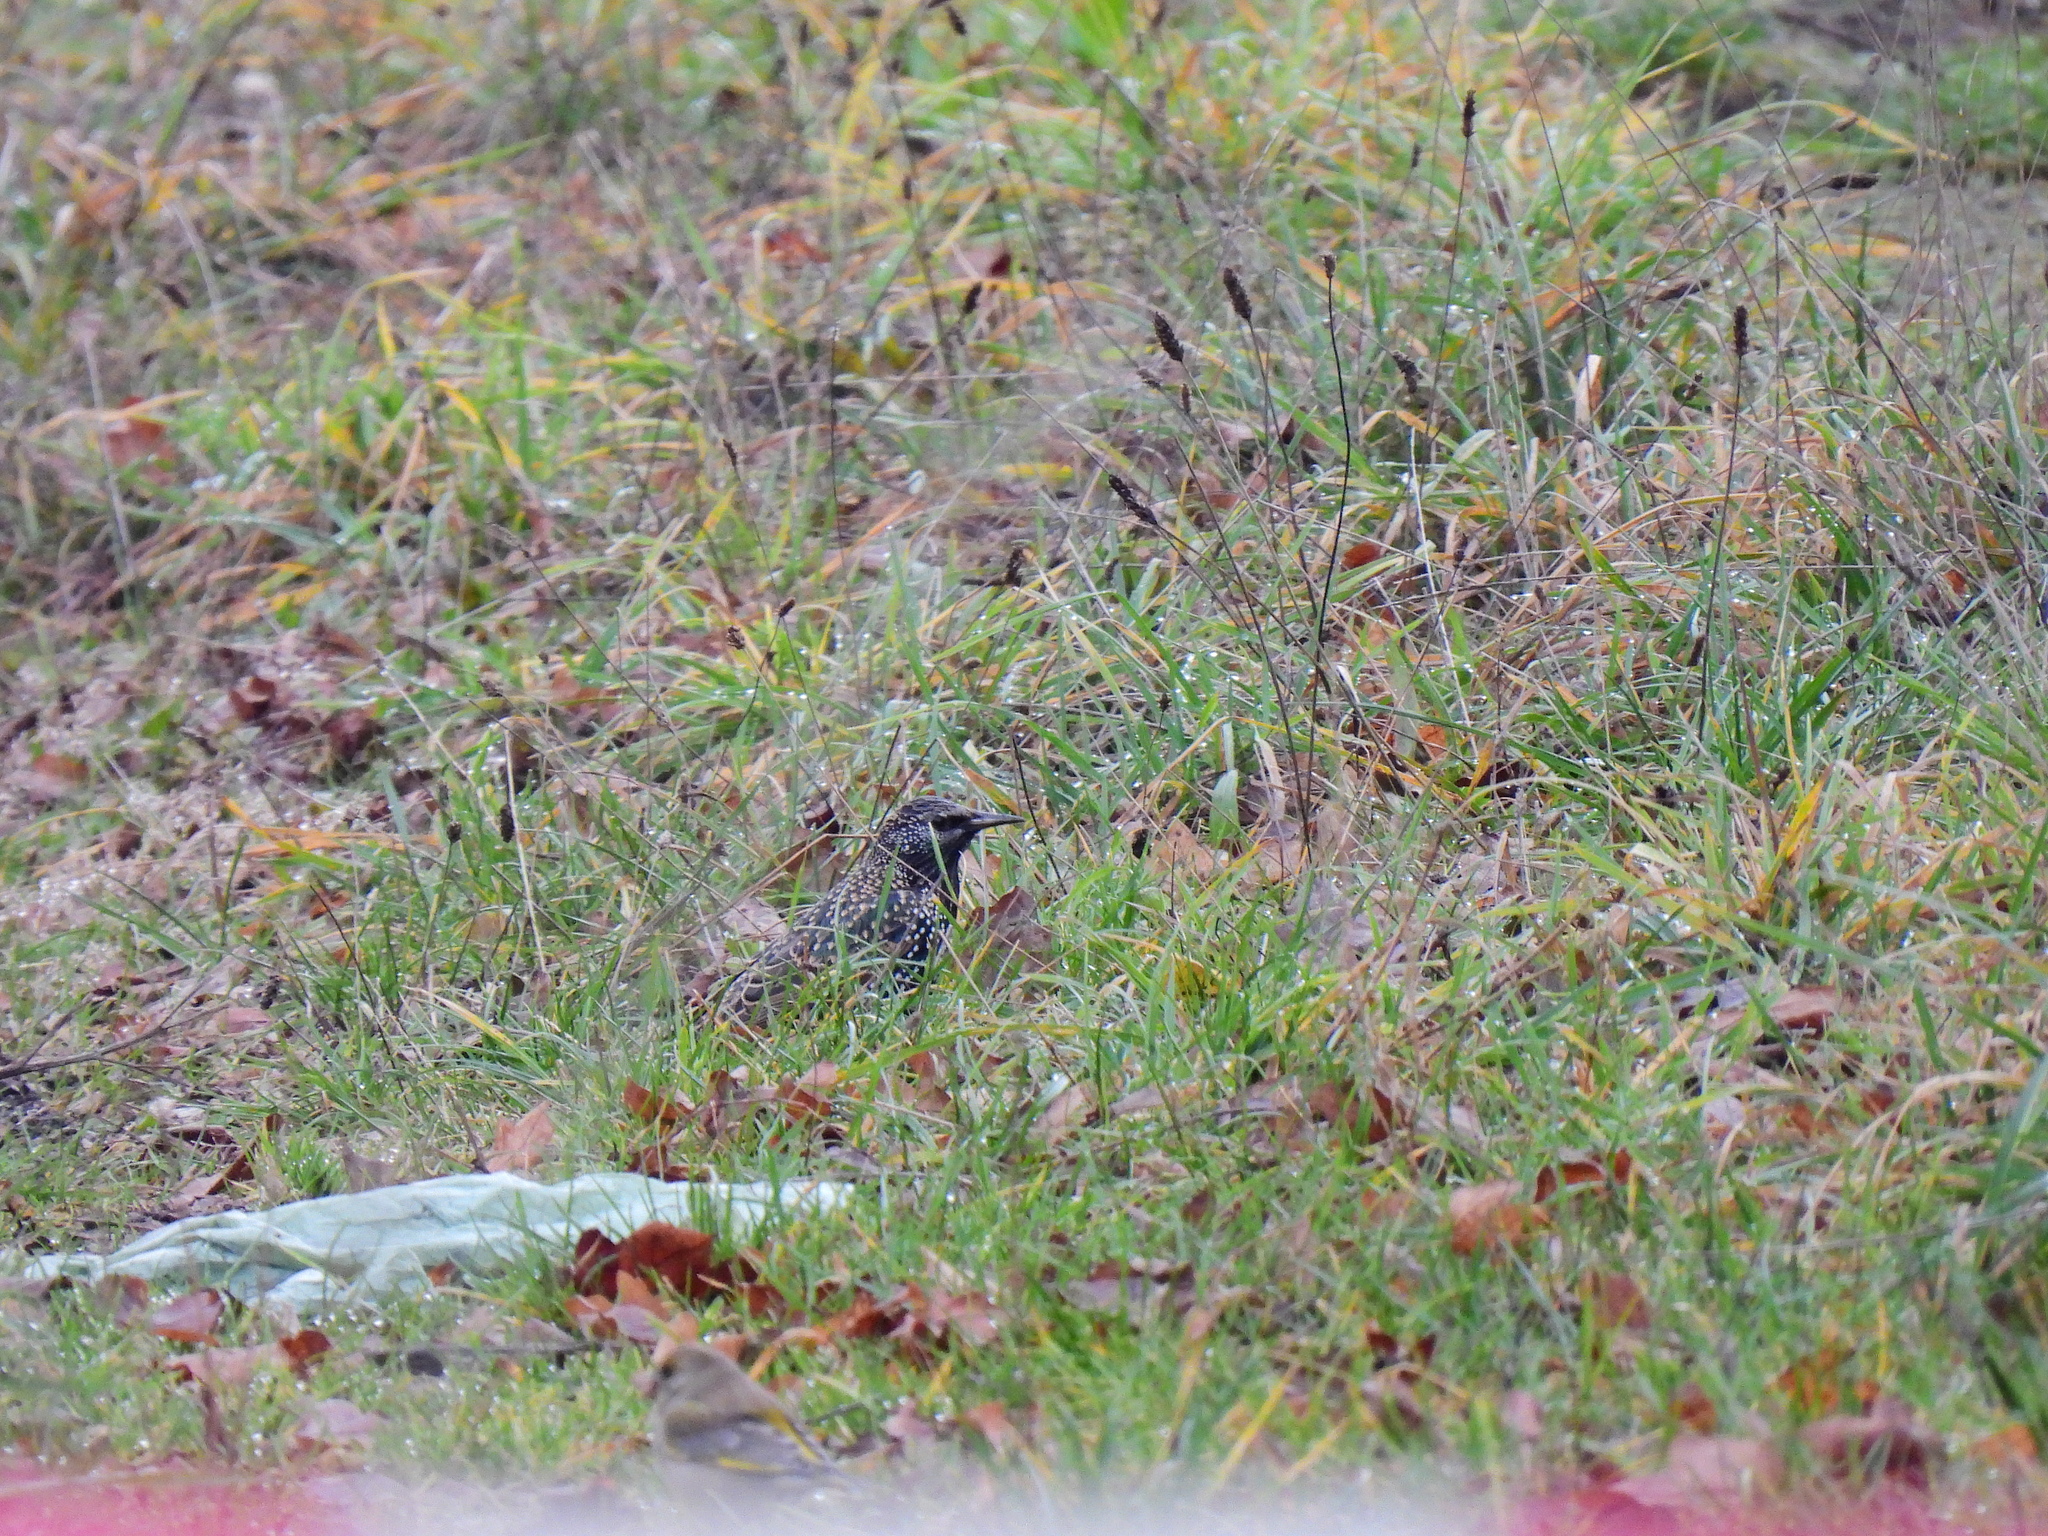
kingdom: Animalia
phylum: Chordata
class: Aves
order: Passeriformes
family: Sturnidae
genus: Sturnus
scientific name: Sturnus vulgaris
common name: Common starling
